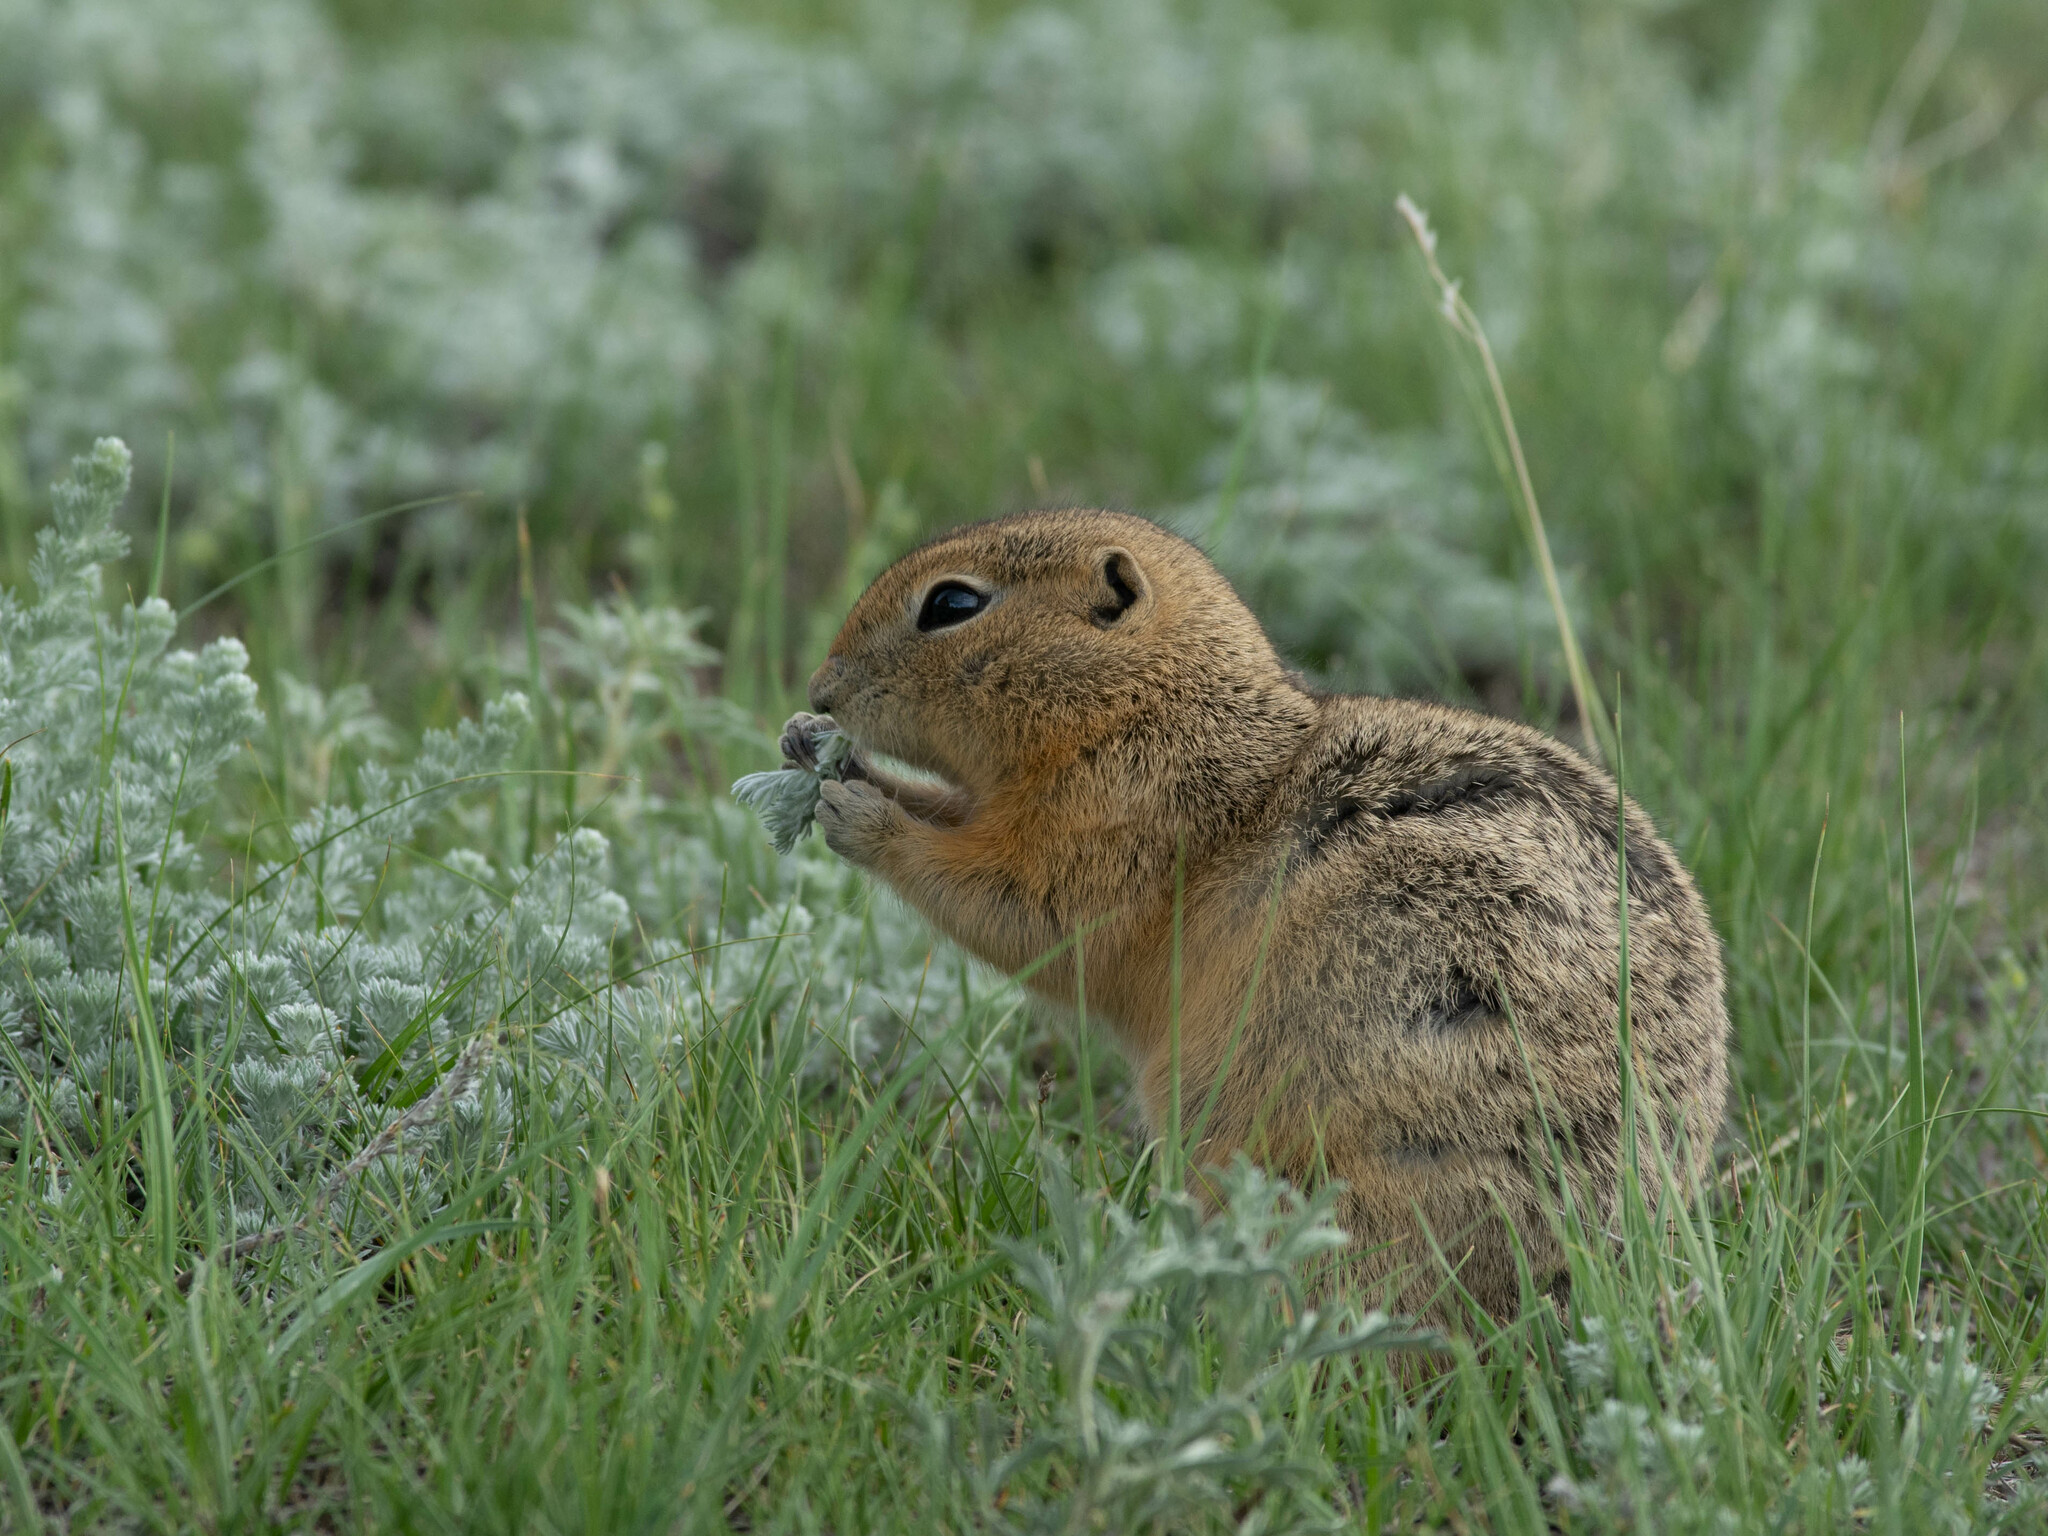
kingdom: Animalia
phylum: Chordata
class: Mammalia
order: Rodentia
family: Sciuridae
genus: Urocitellus
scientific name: Urocitellus richardsonii
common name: Richardson's ground squirrel
